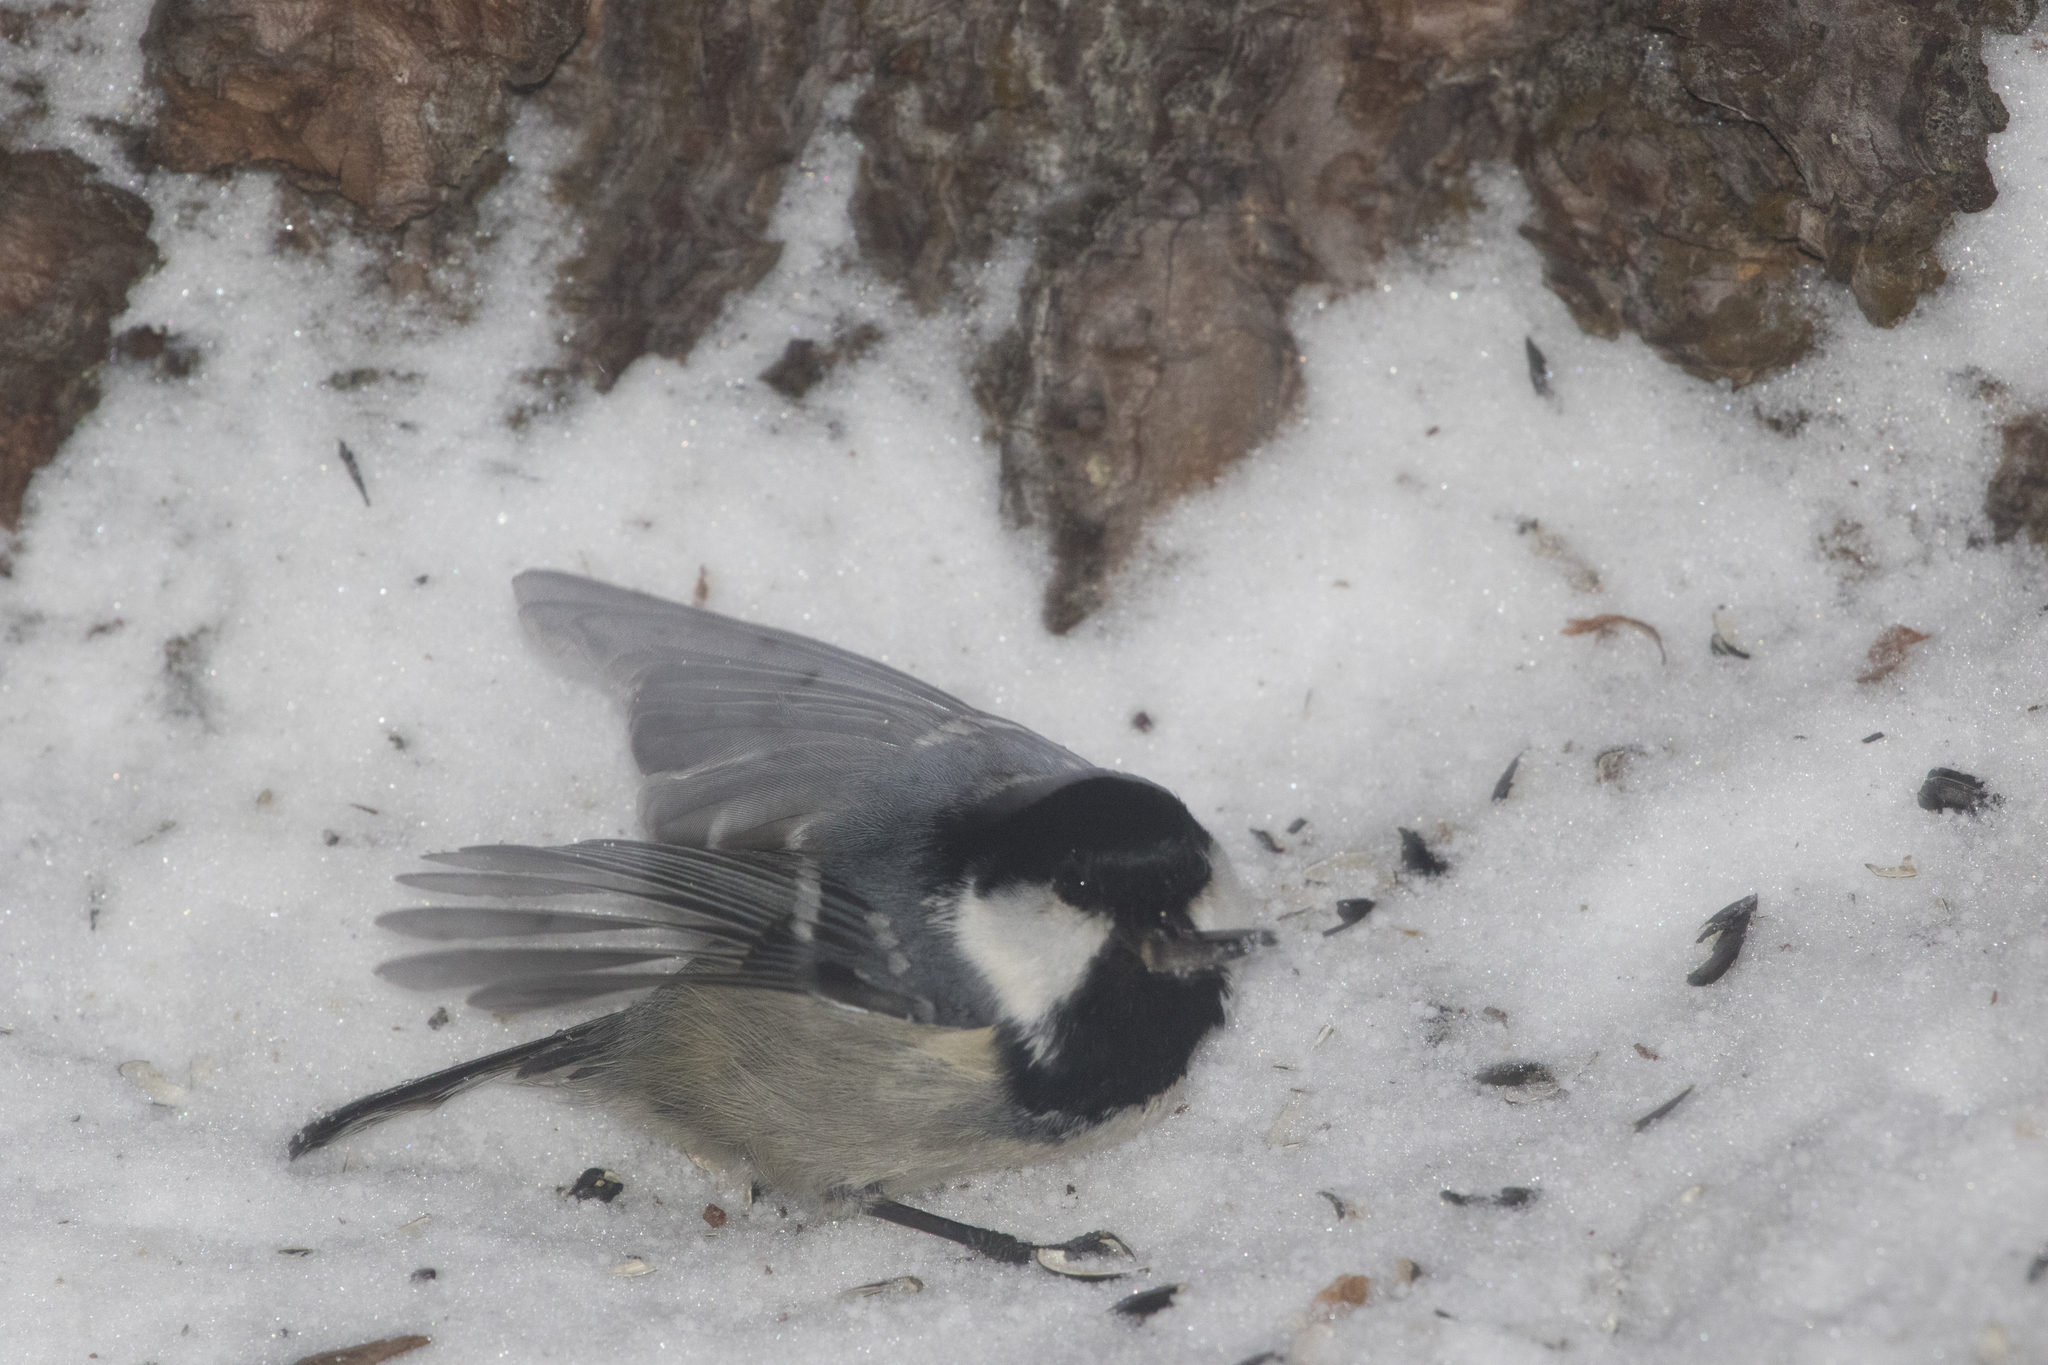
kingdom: Animalia
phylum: Chordata
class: Aves
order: Passeriformes
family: Paridae
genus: Periparus
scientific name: Periparus ater
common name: Coal tit
